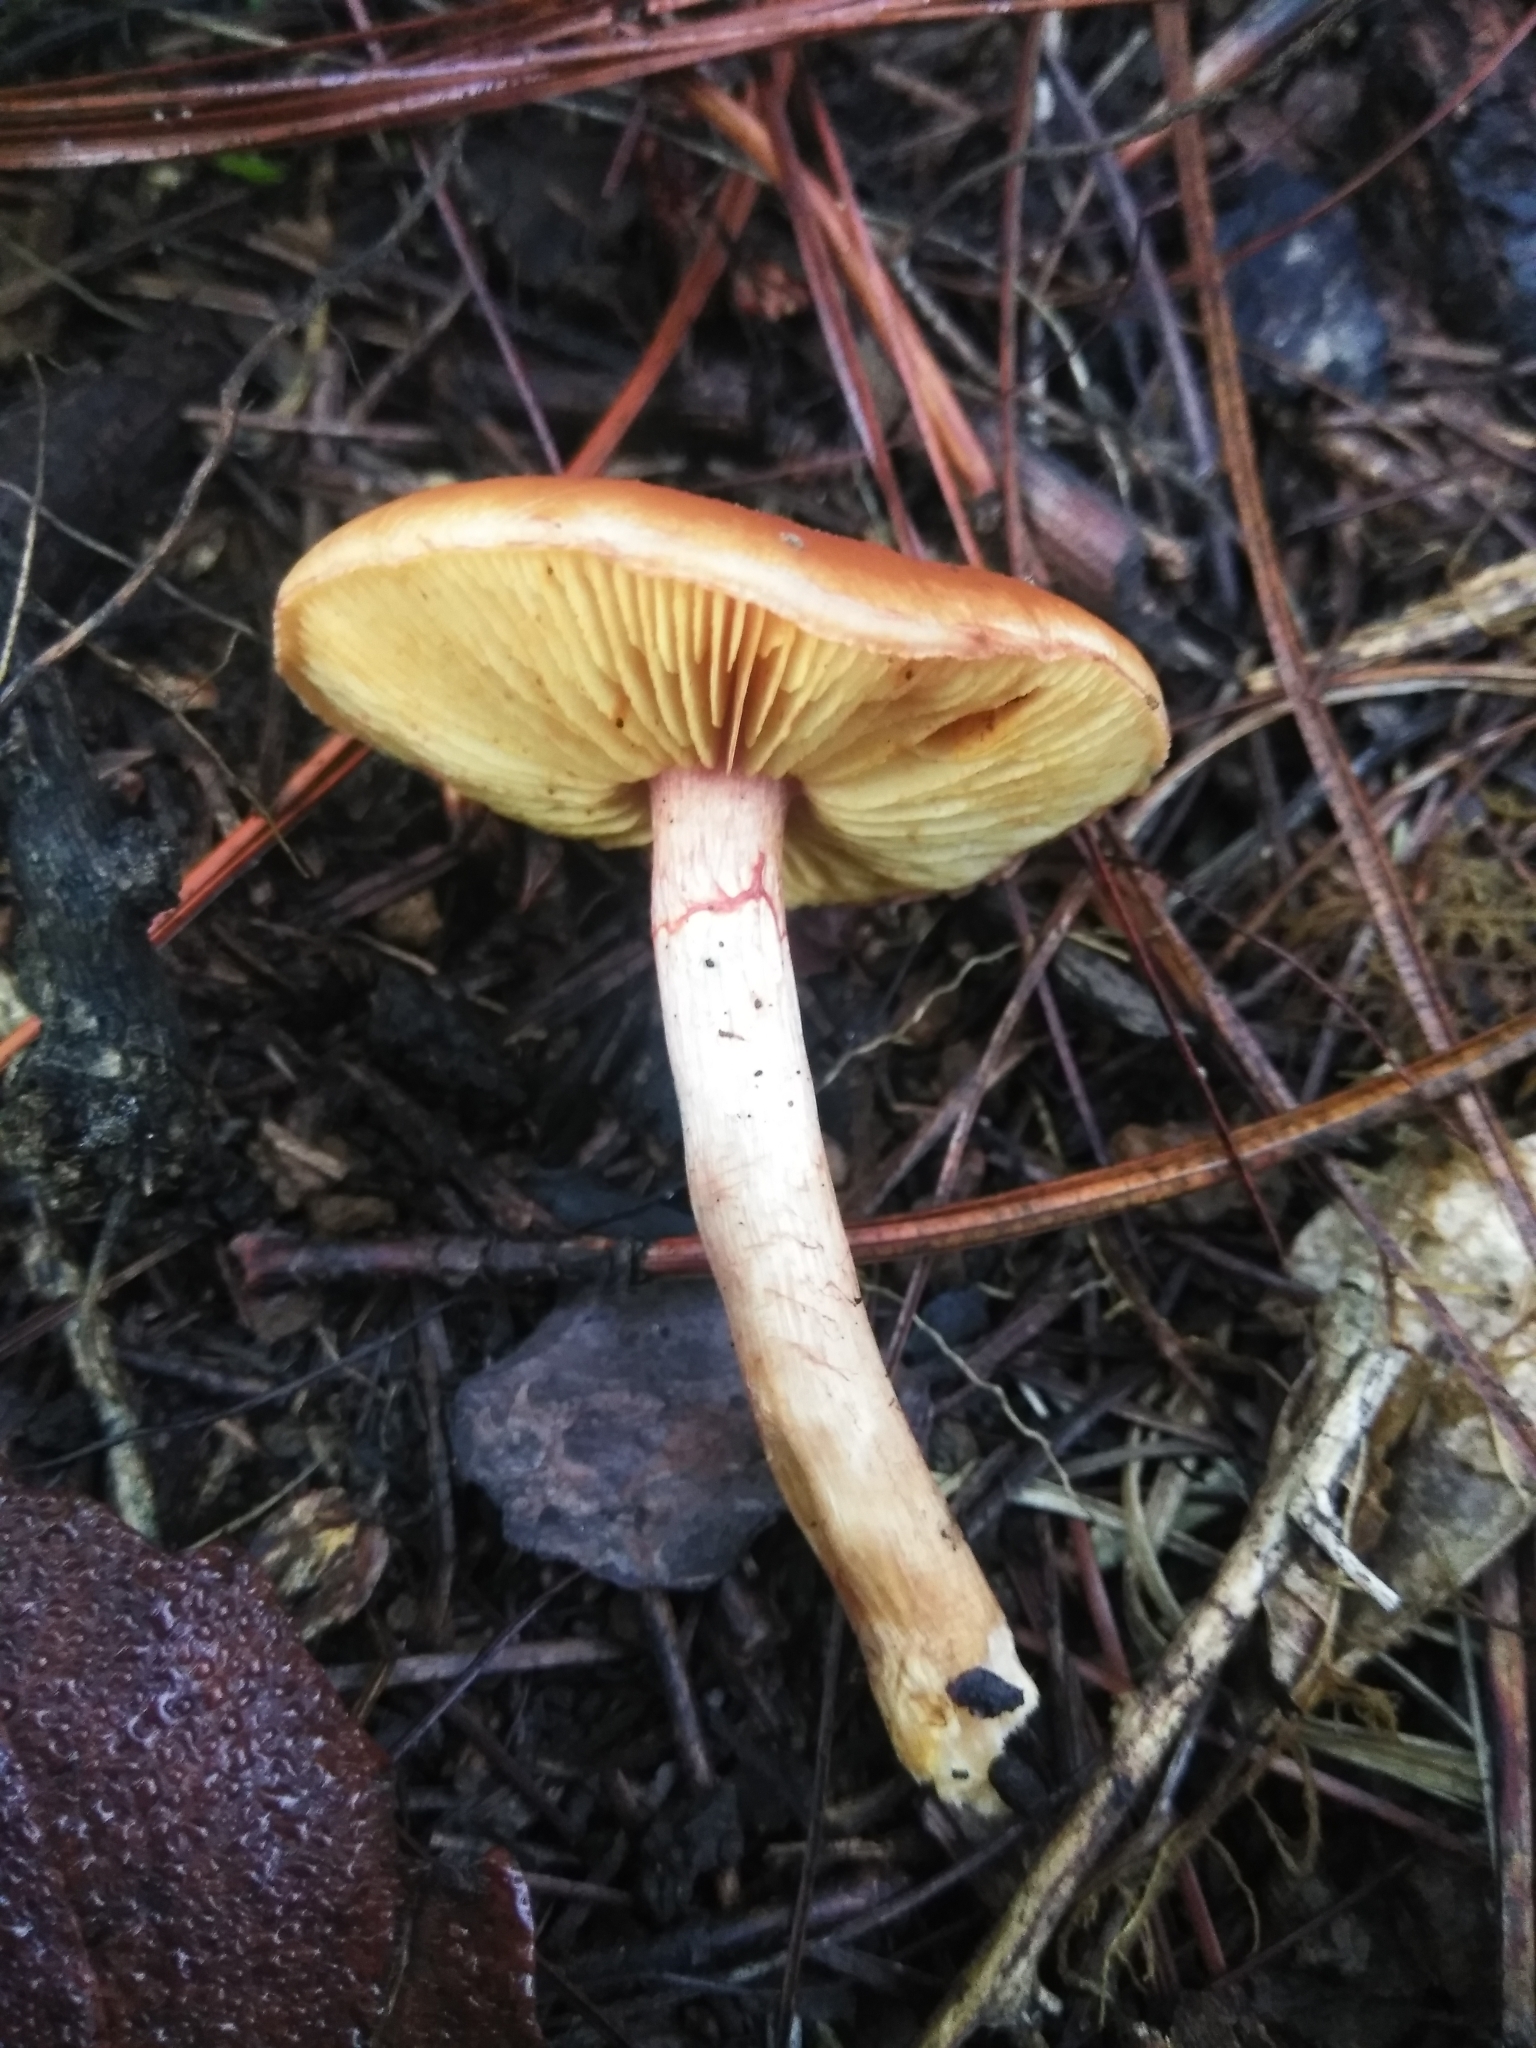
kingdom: Fungi
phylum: Basidiomycota
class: Agaricomycetes
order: Agaricales
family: Hymenogastraceae
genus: Gymnopilus
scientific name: Gymnopilus sapineus
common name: Scaly rustgill
